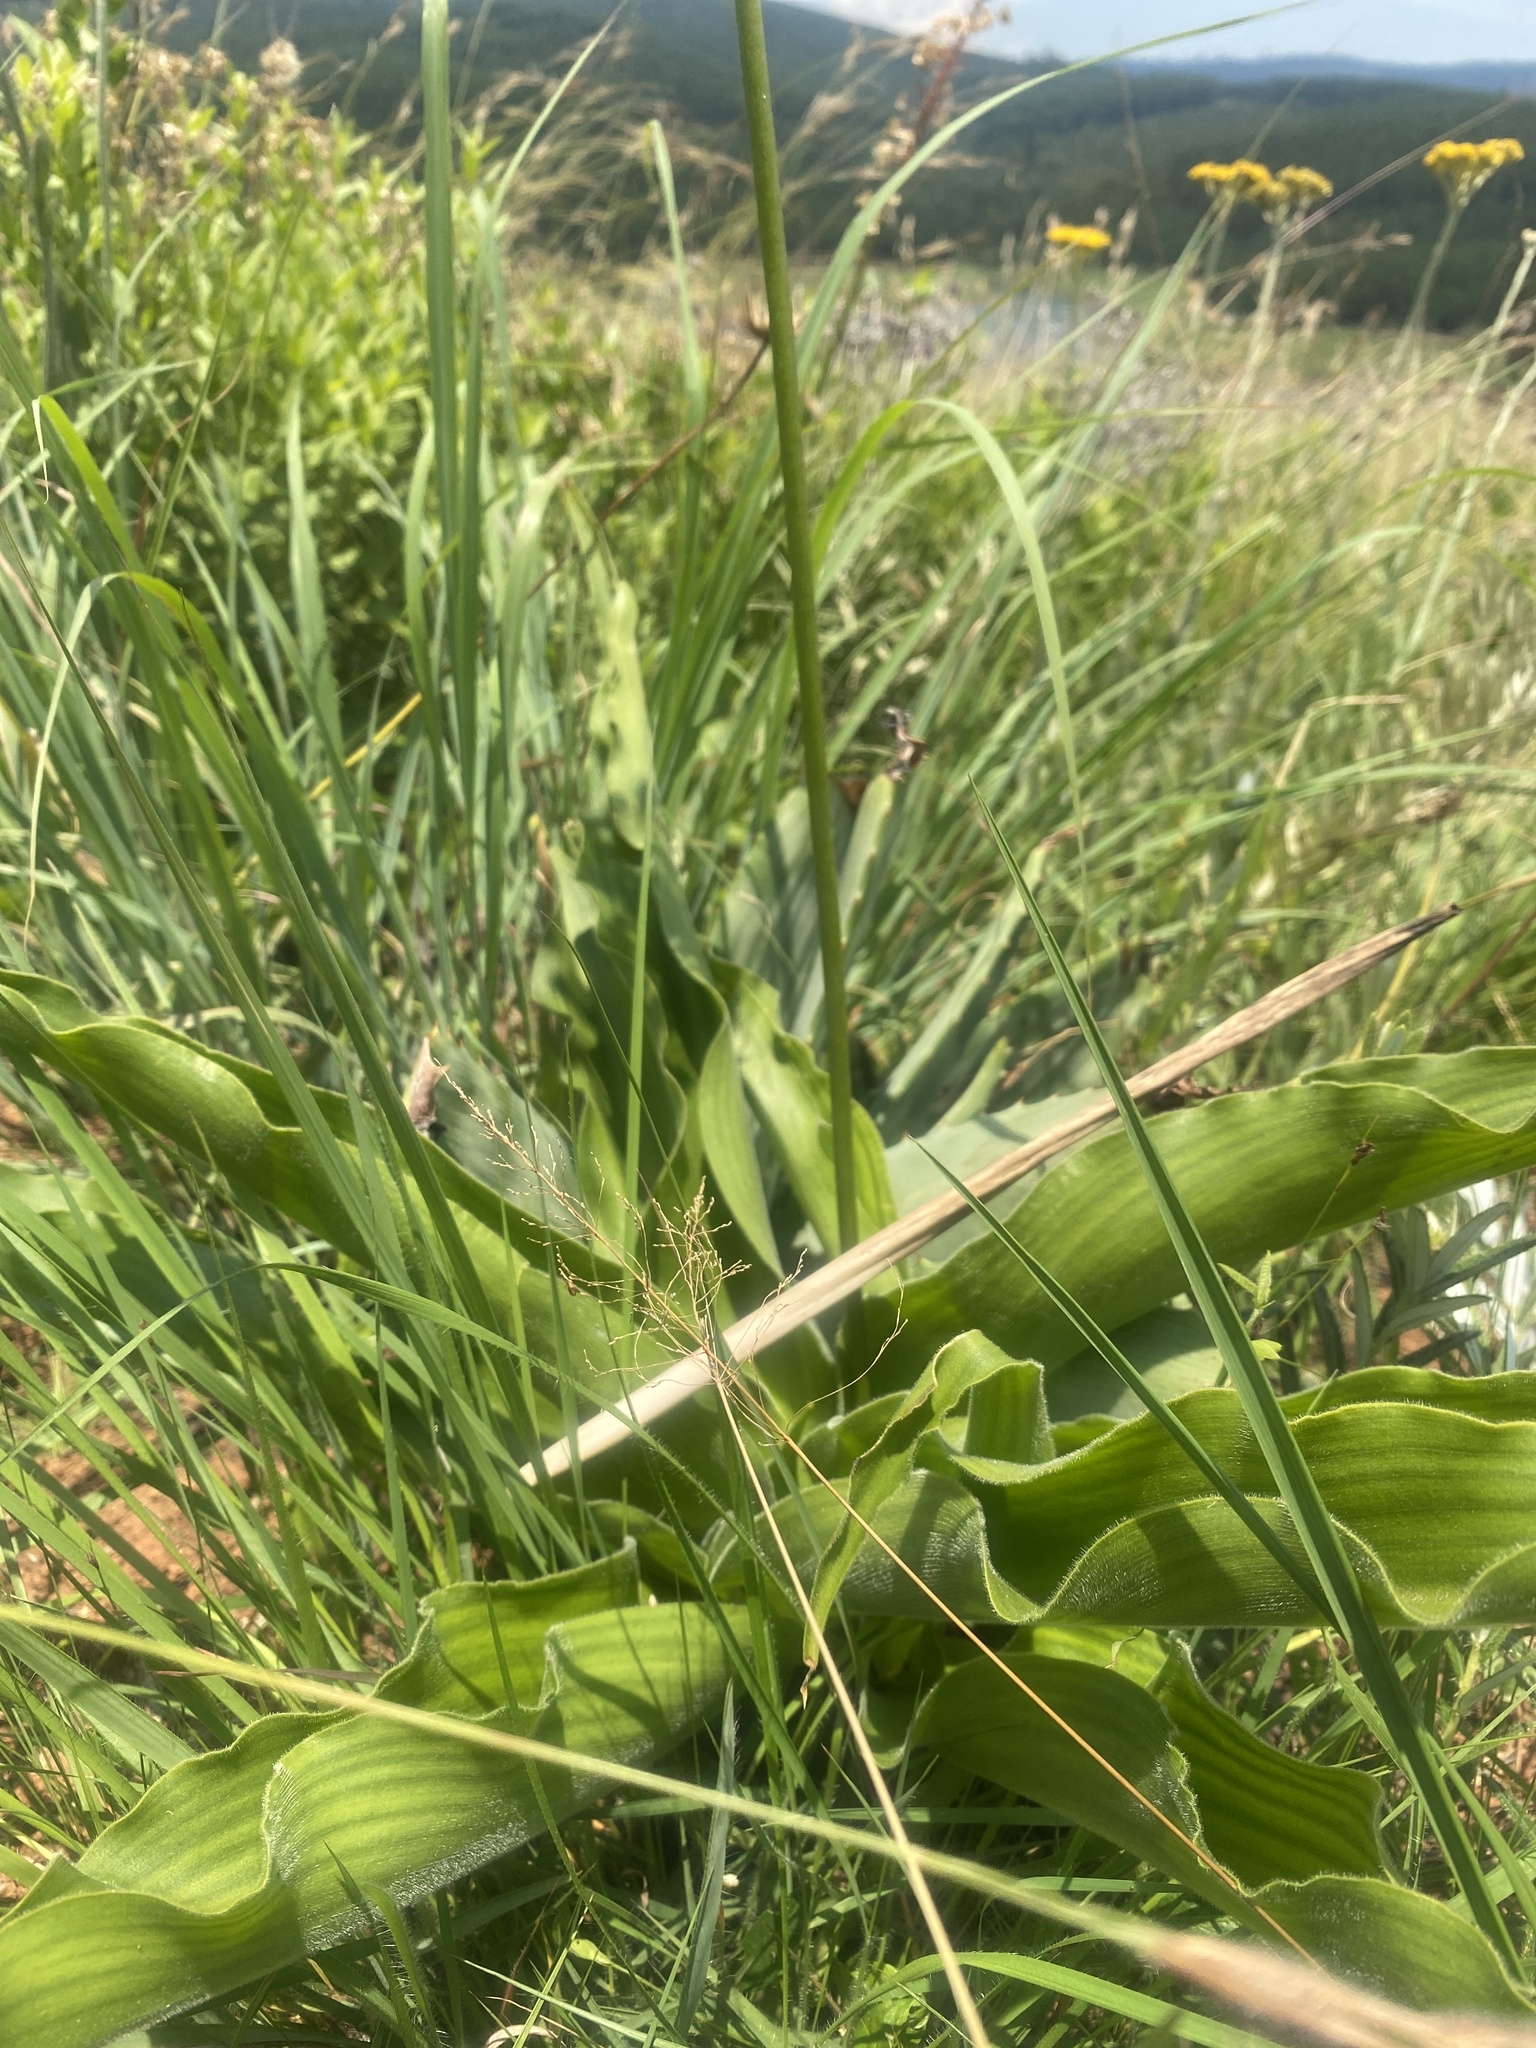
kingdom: Plantae
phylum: Tracheophyta
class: Liliopsida
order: Asparagales
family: Asparagaceae
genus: Merwilla
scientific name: Merwilla plumbea
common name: Blue-squill
